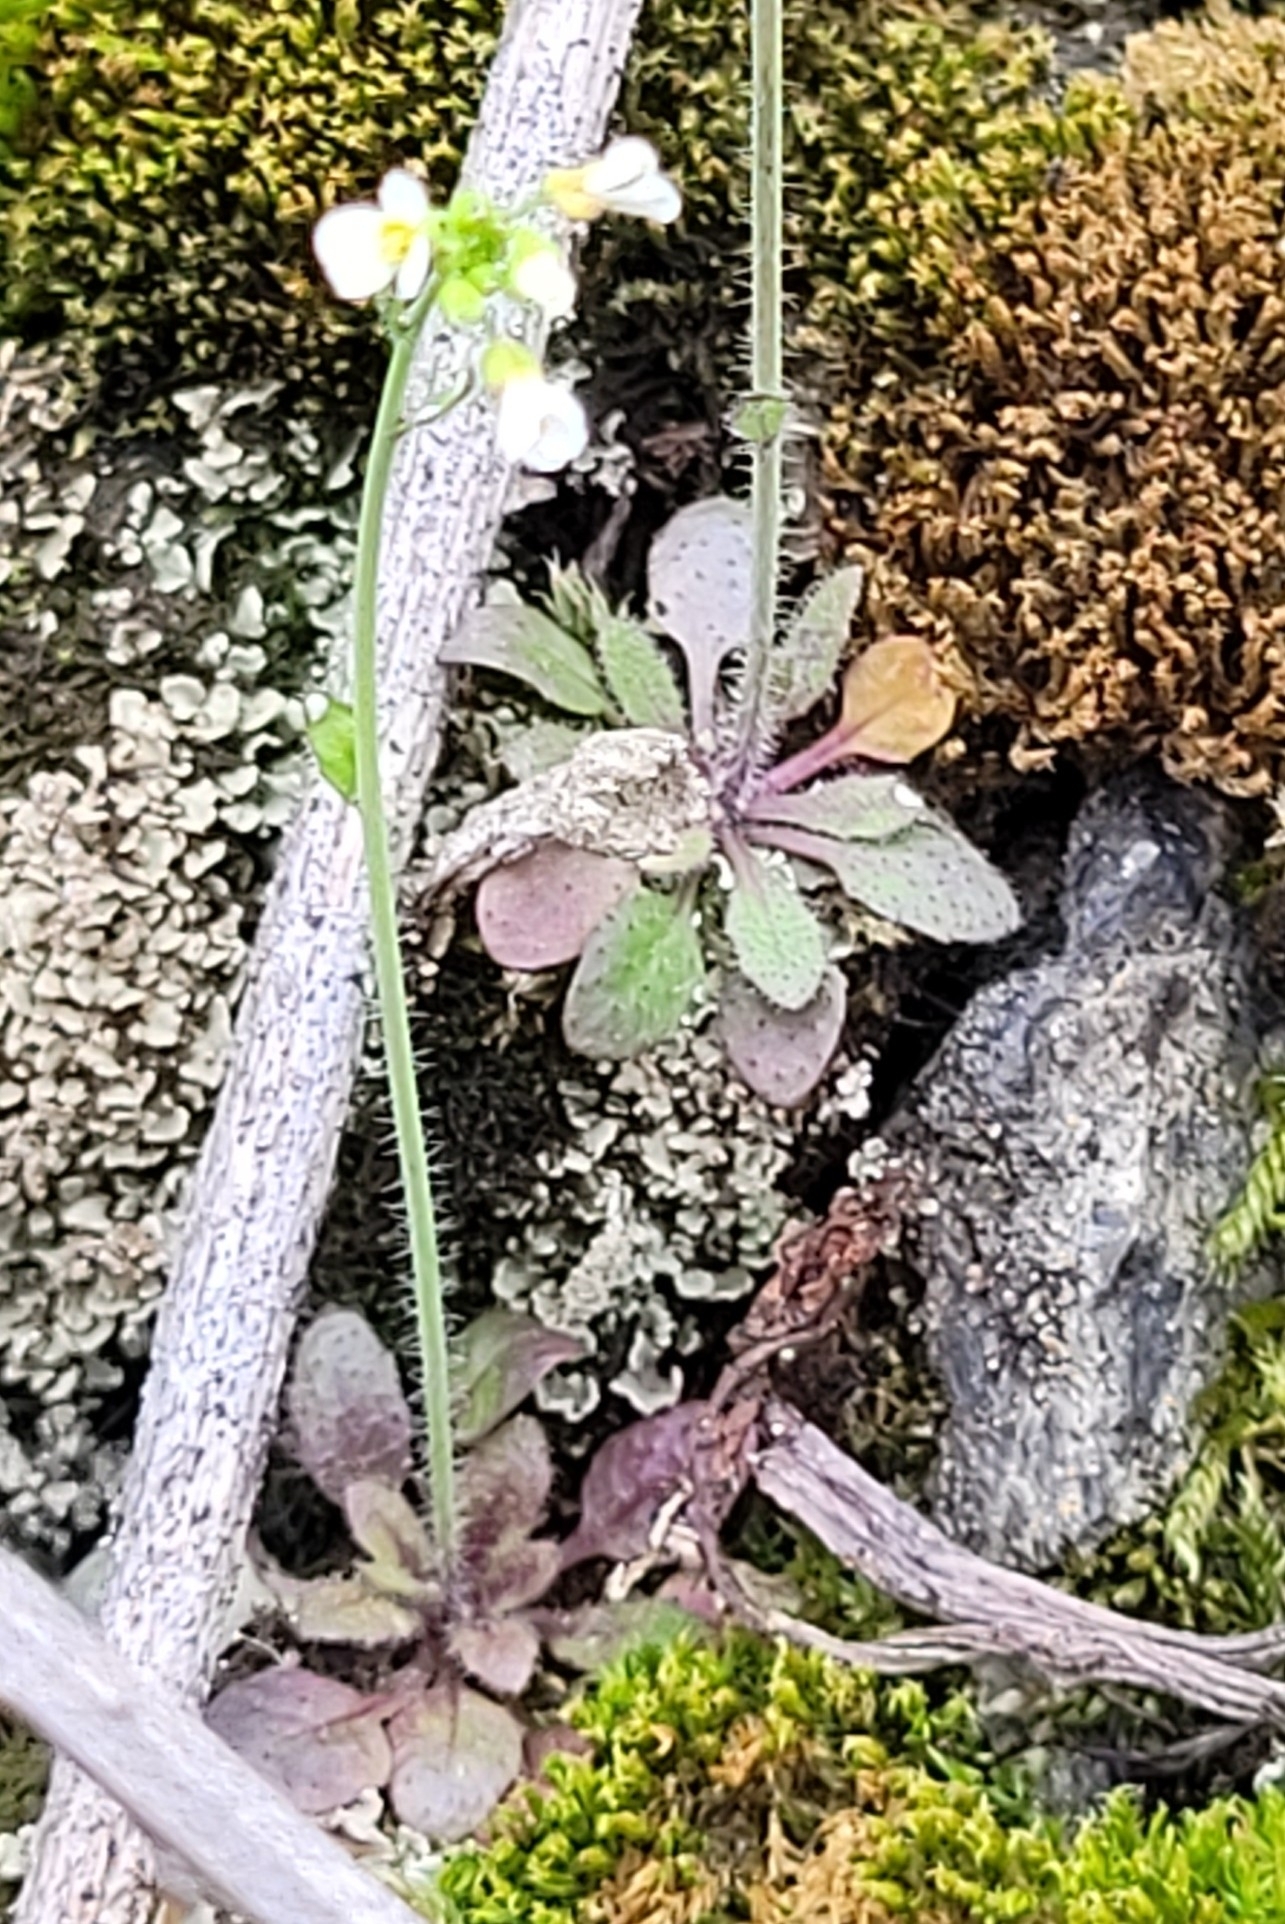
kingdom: Plantae
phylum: Tracheophyta
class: Magnoliopsida
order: Brassicales
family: Brassicaceae
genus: Arabidopsis
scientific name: Arabidopsis thaliana
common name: Thale cress
